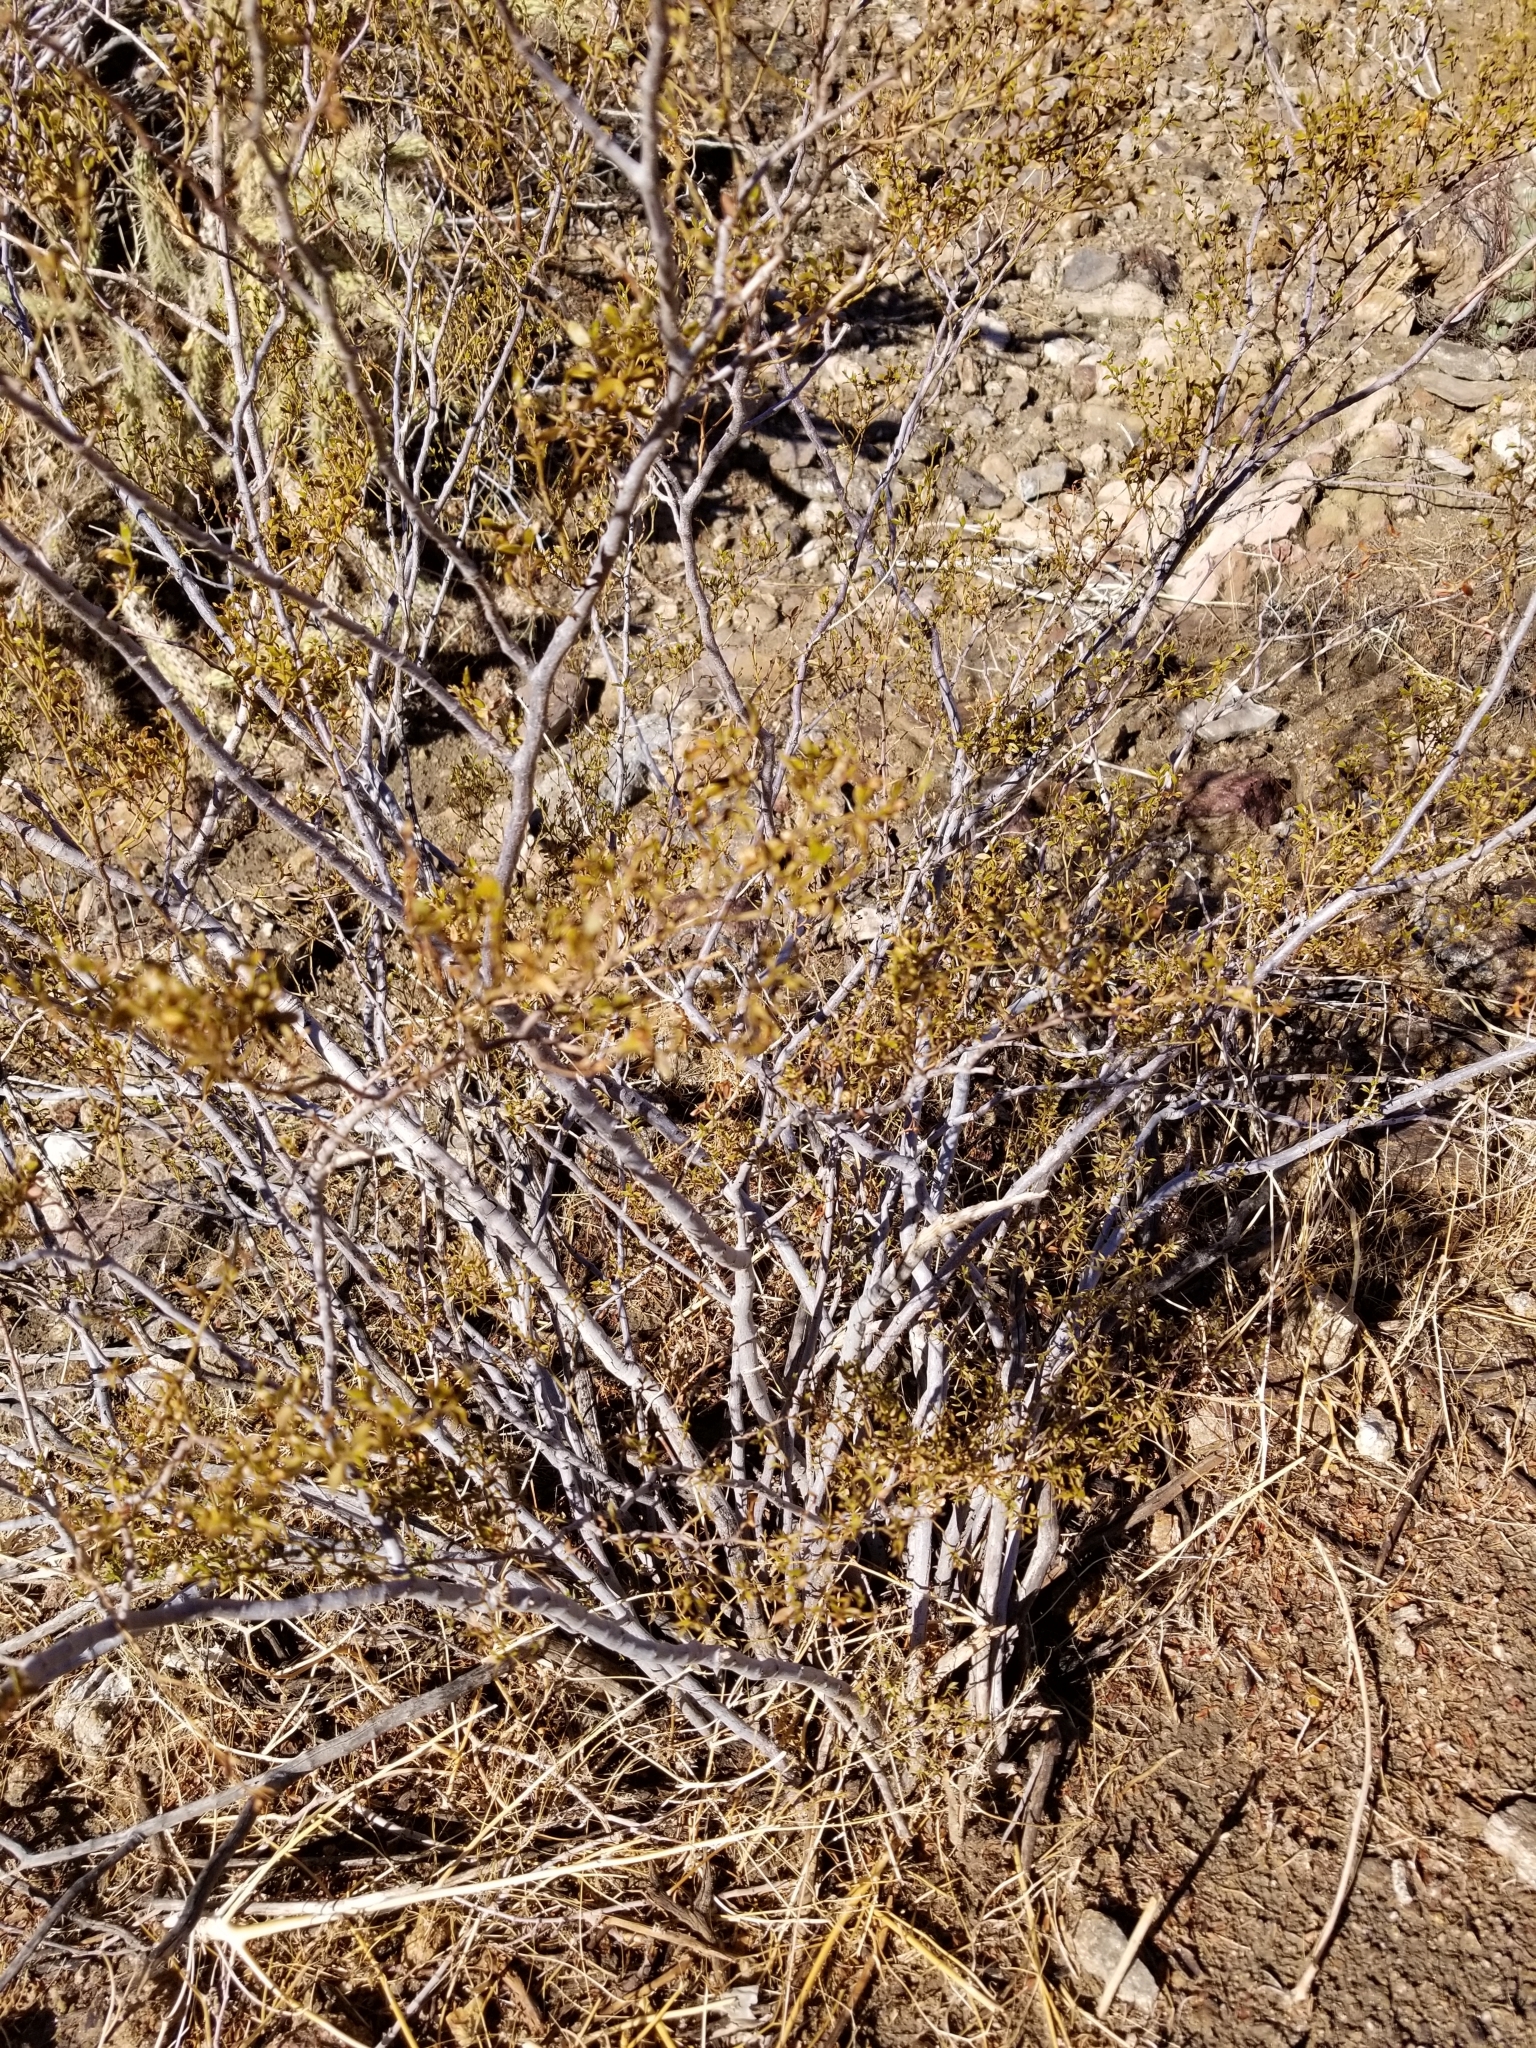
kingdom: Plantae
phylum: Tracheophyta
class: Magnoliopsida
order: Zygophyllales
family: Zygophyllaceae
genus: Larrea
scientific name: Larrea tridentata
